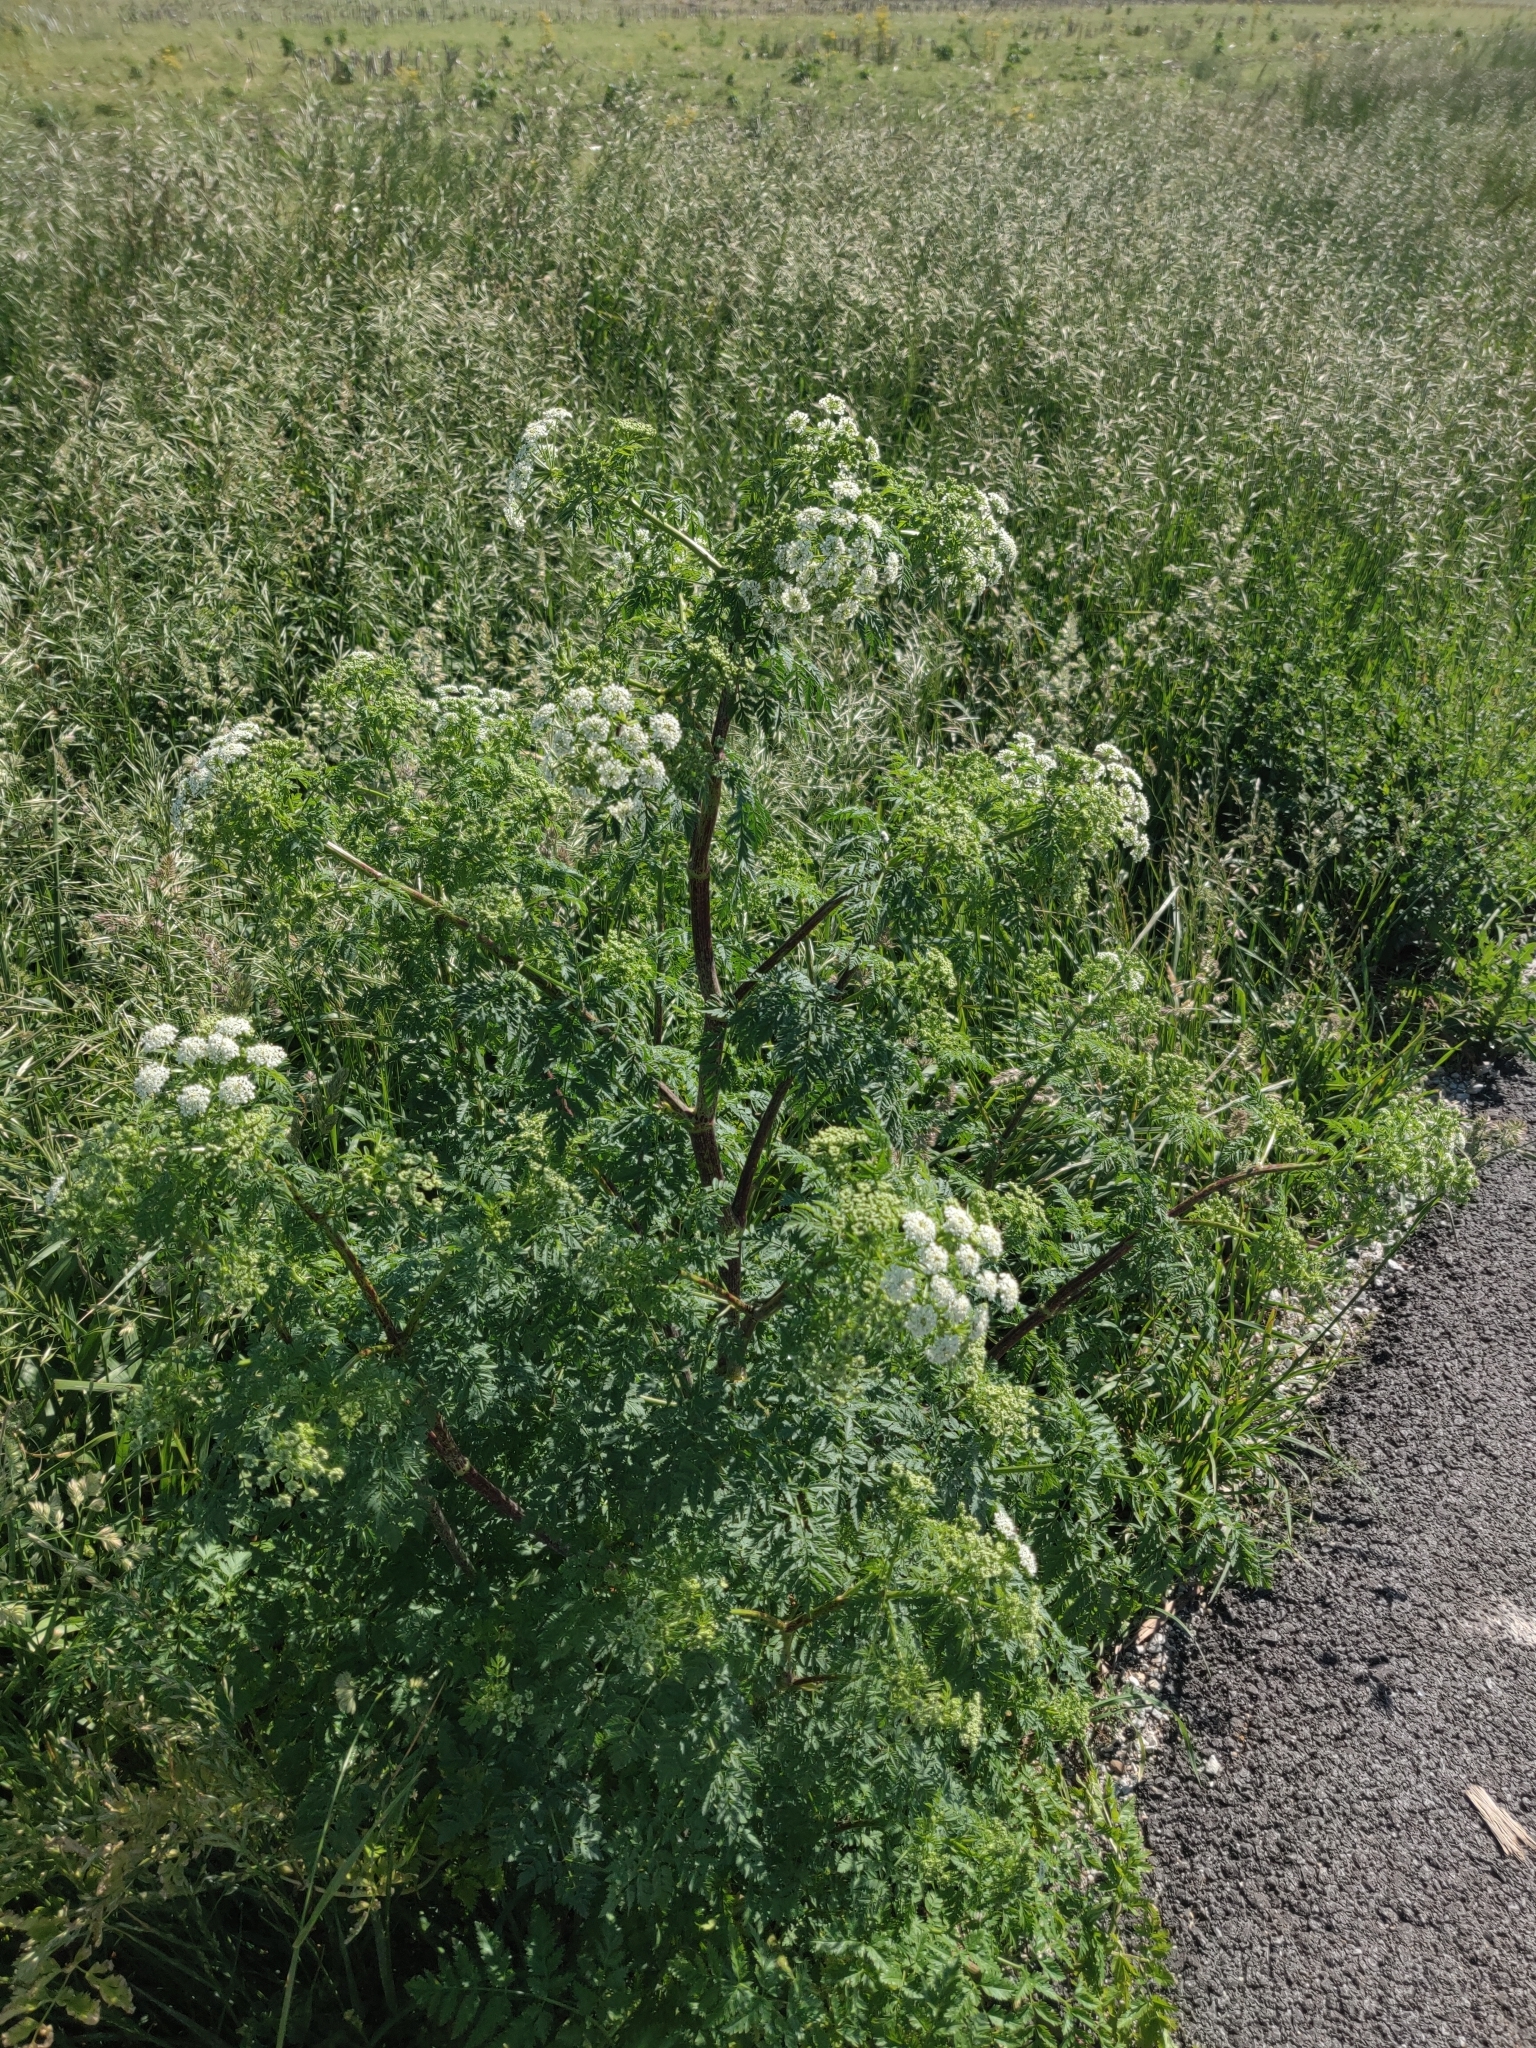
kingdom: Plantae
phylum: Tracheophyta
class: Magnoliopsida
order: Apiales
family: Apiaceae
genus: Conium
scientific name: Conium maculatum
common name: Hemlock
